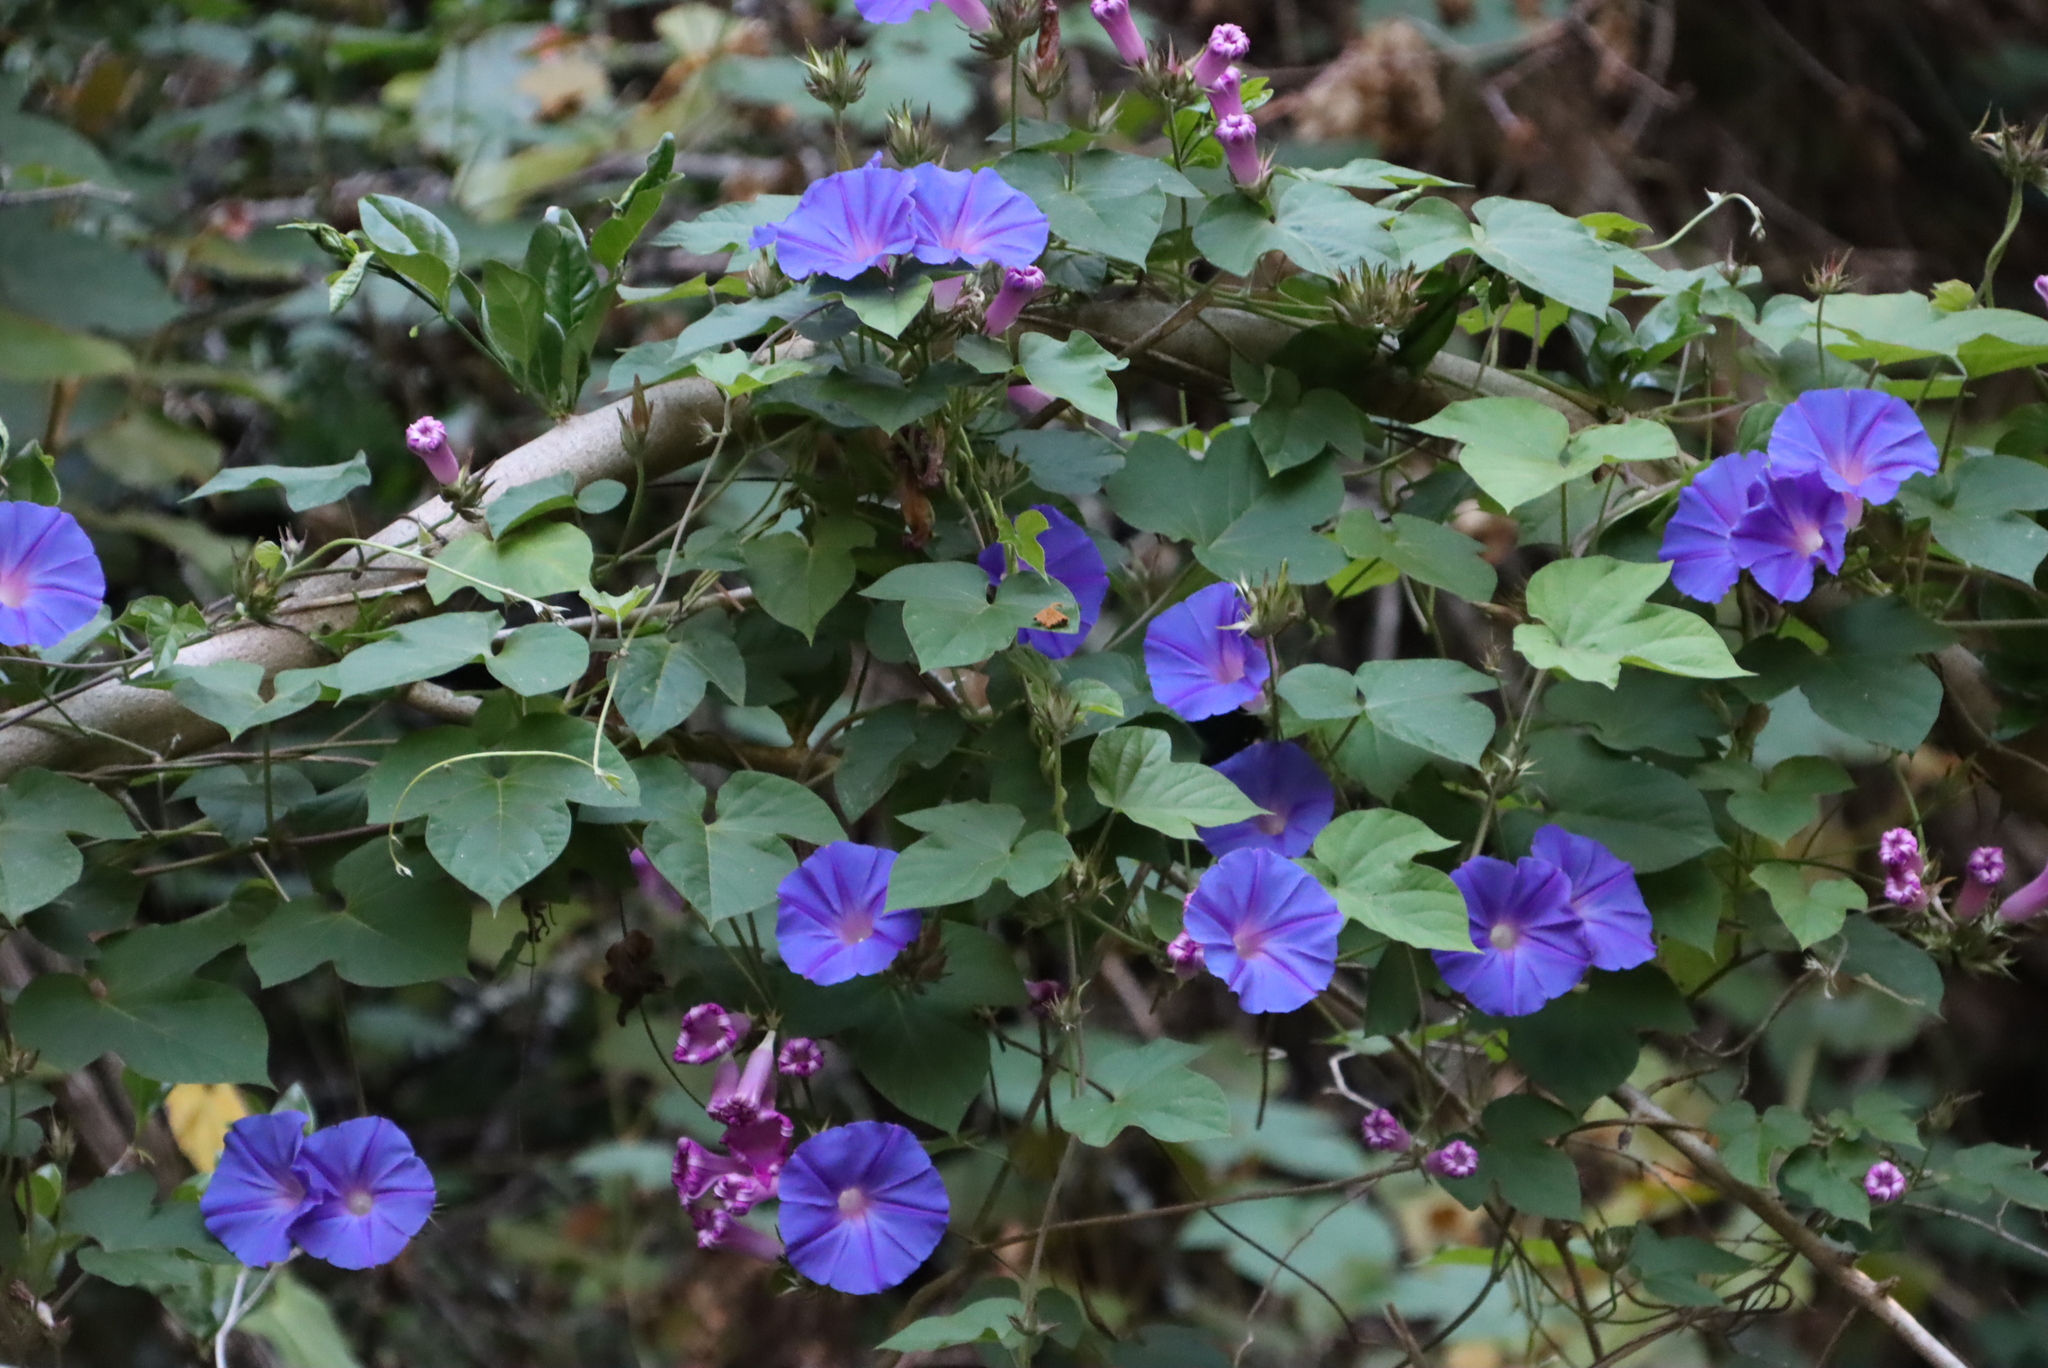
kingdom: Plantae
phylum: Tracheophyta
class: Magnoliopsida
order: Solanales
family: Convolvulaceae
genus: Ipomoea
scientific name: Ipomoea indica
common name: Blue dawnflower
